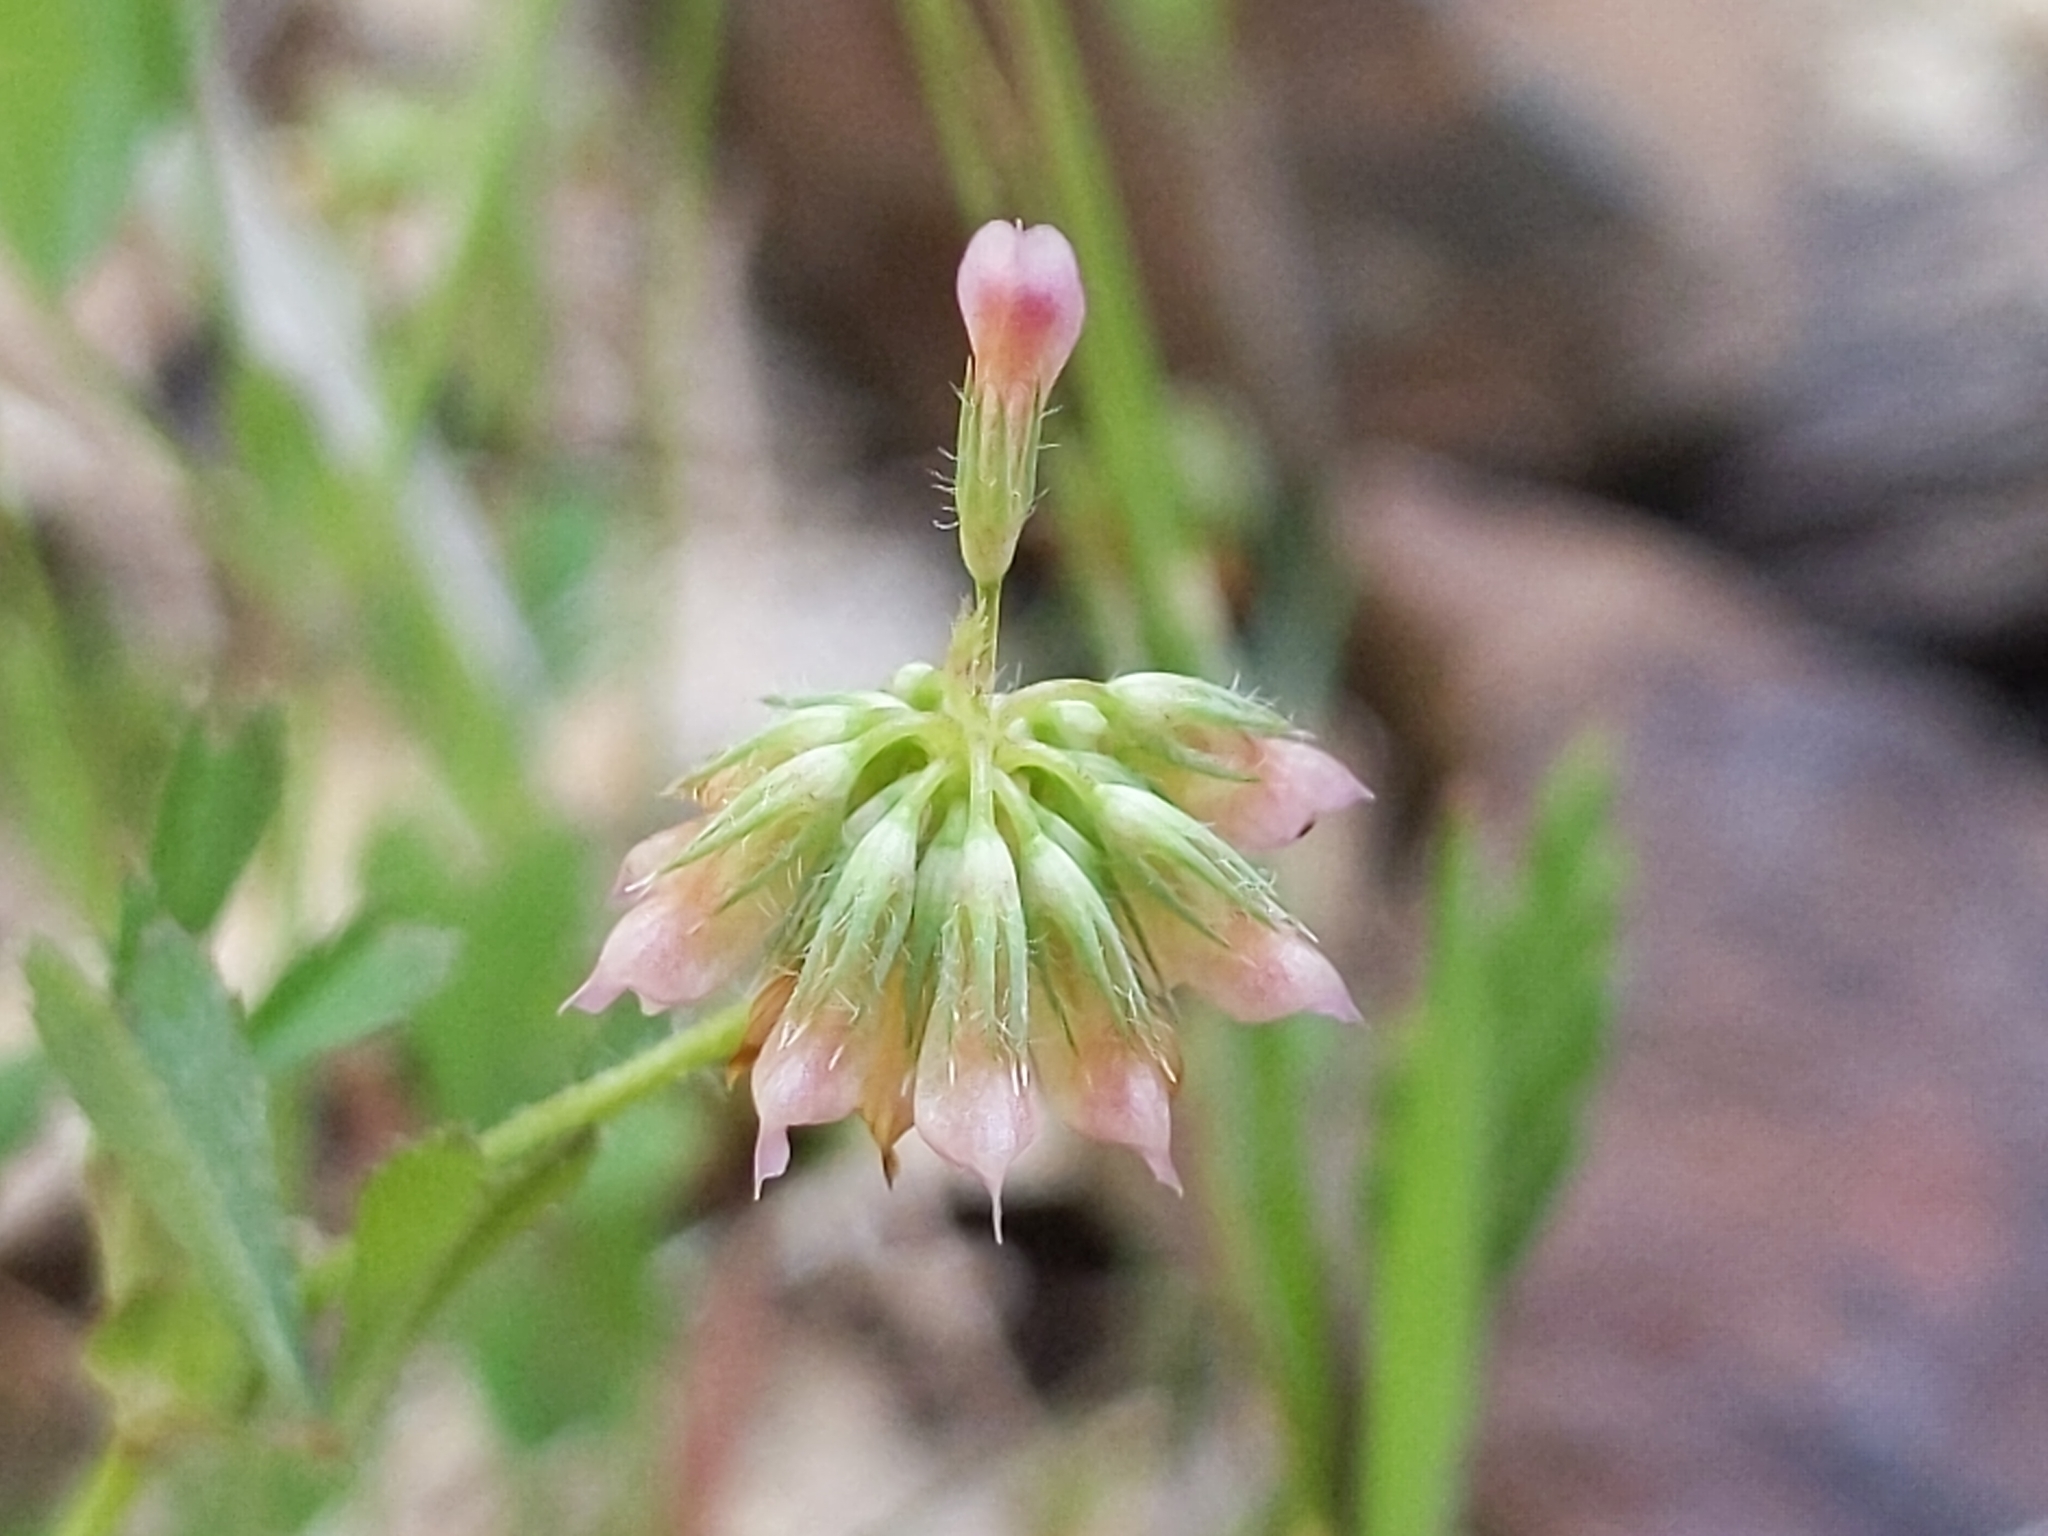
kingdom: Plantae
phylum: Tracheophyta
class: Magnoliopsida
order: Fabales
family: Fabaceae
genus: Trifolium
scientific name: Trifolium bifidum
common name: Notch-leaf clover
